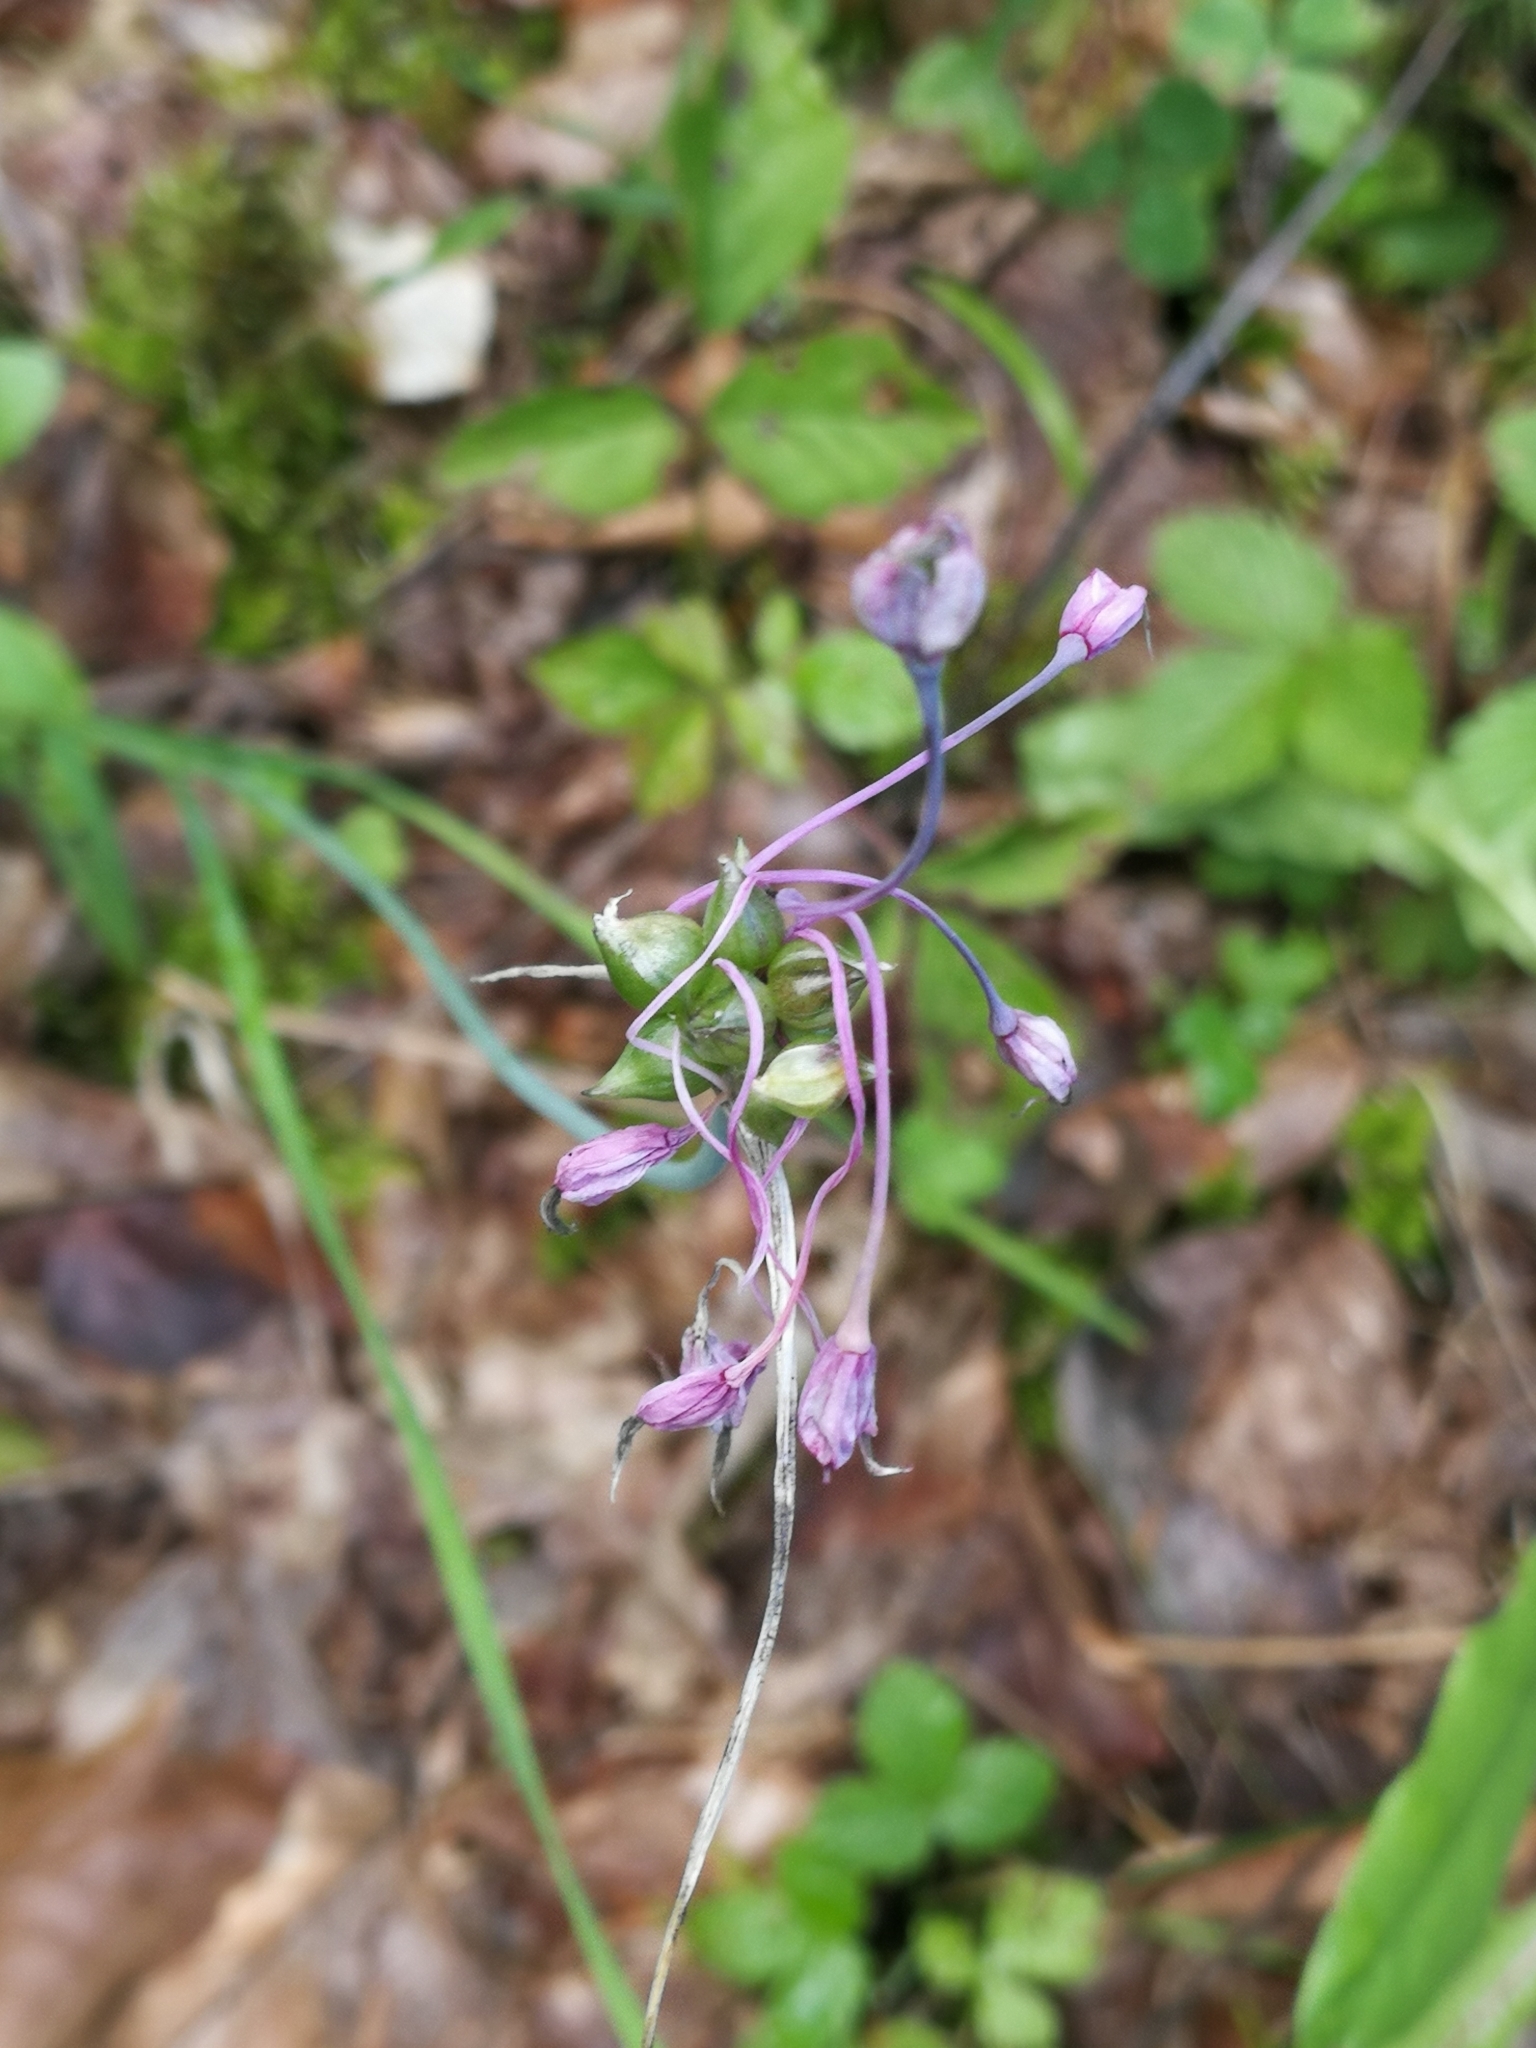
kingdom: Plantae
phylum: Tracheophyta
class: Liliopsida
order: Asparagales
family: Amaryllidaceae
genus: Allium
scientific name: Allium carinatum
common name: Keeled garlic
